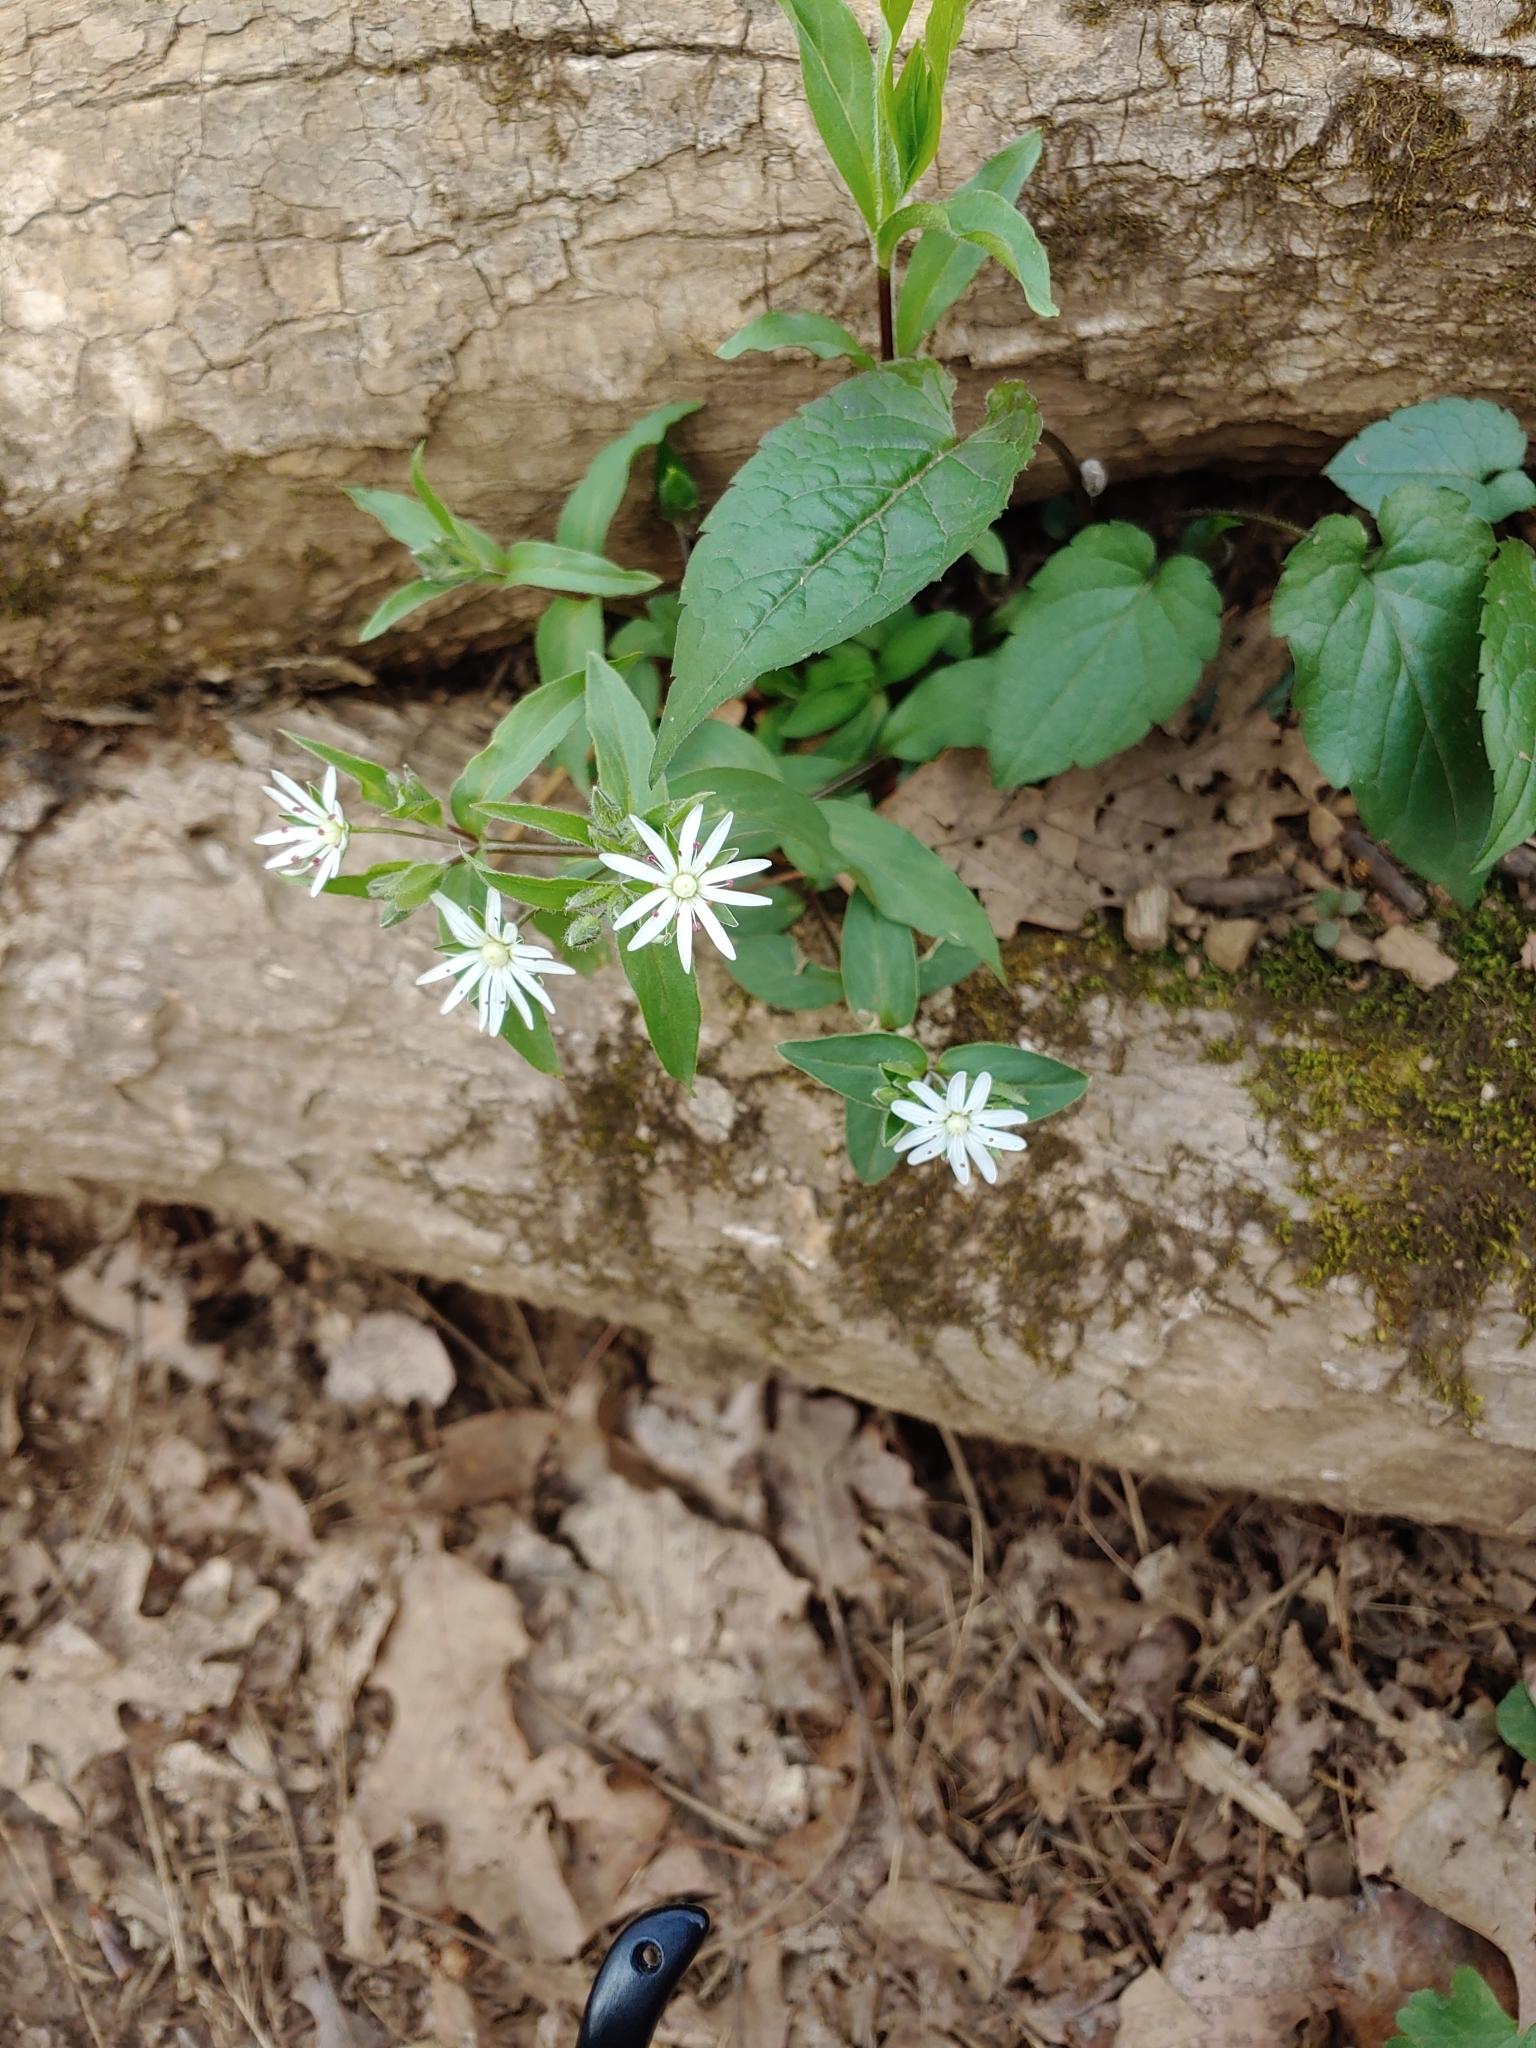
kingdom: Plantae
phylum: Tracheophyta
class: Magnoliopsida
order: Caryophyllales
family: Caryophyllaceae
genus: Stellaria
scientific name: Stellaria pubera
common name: Star chickweed
